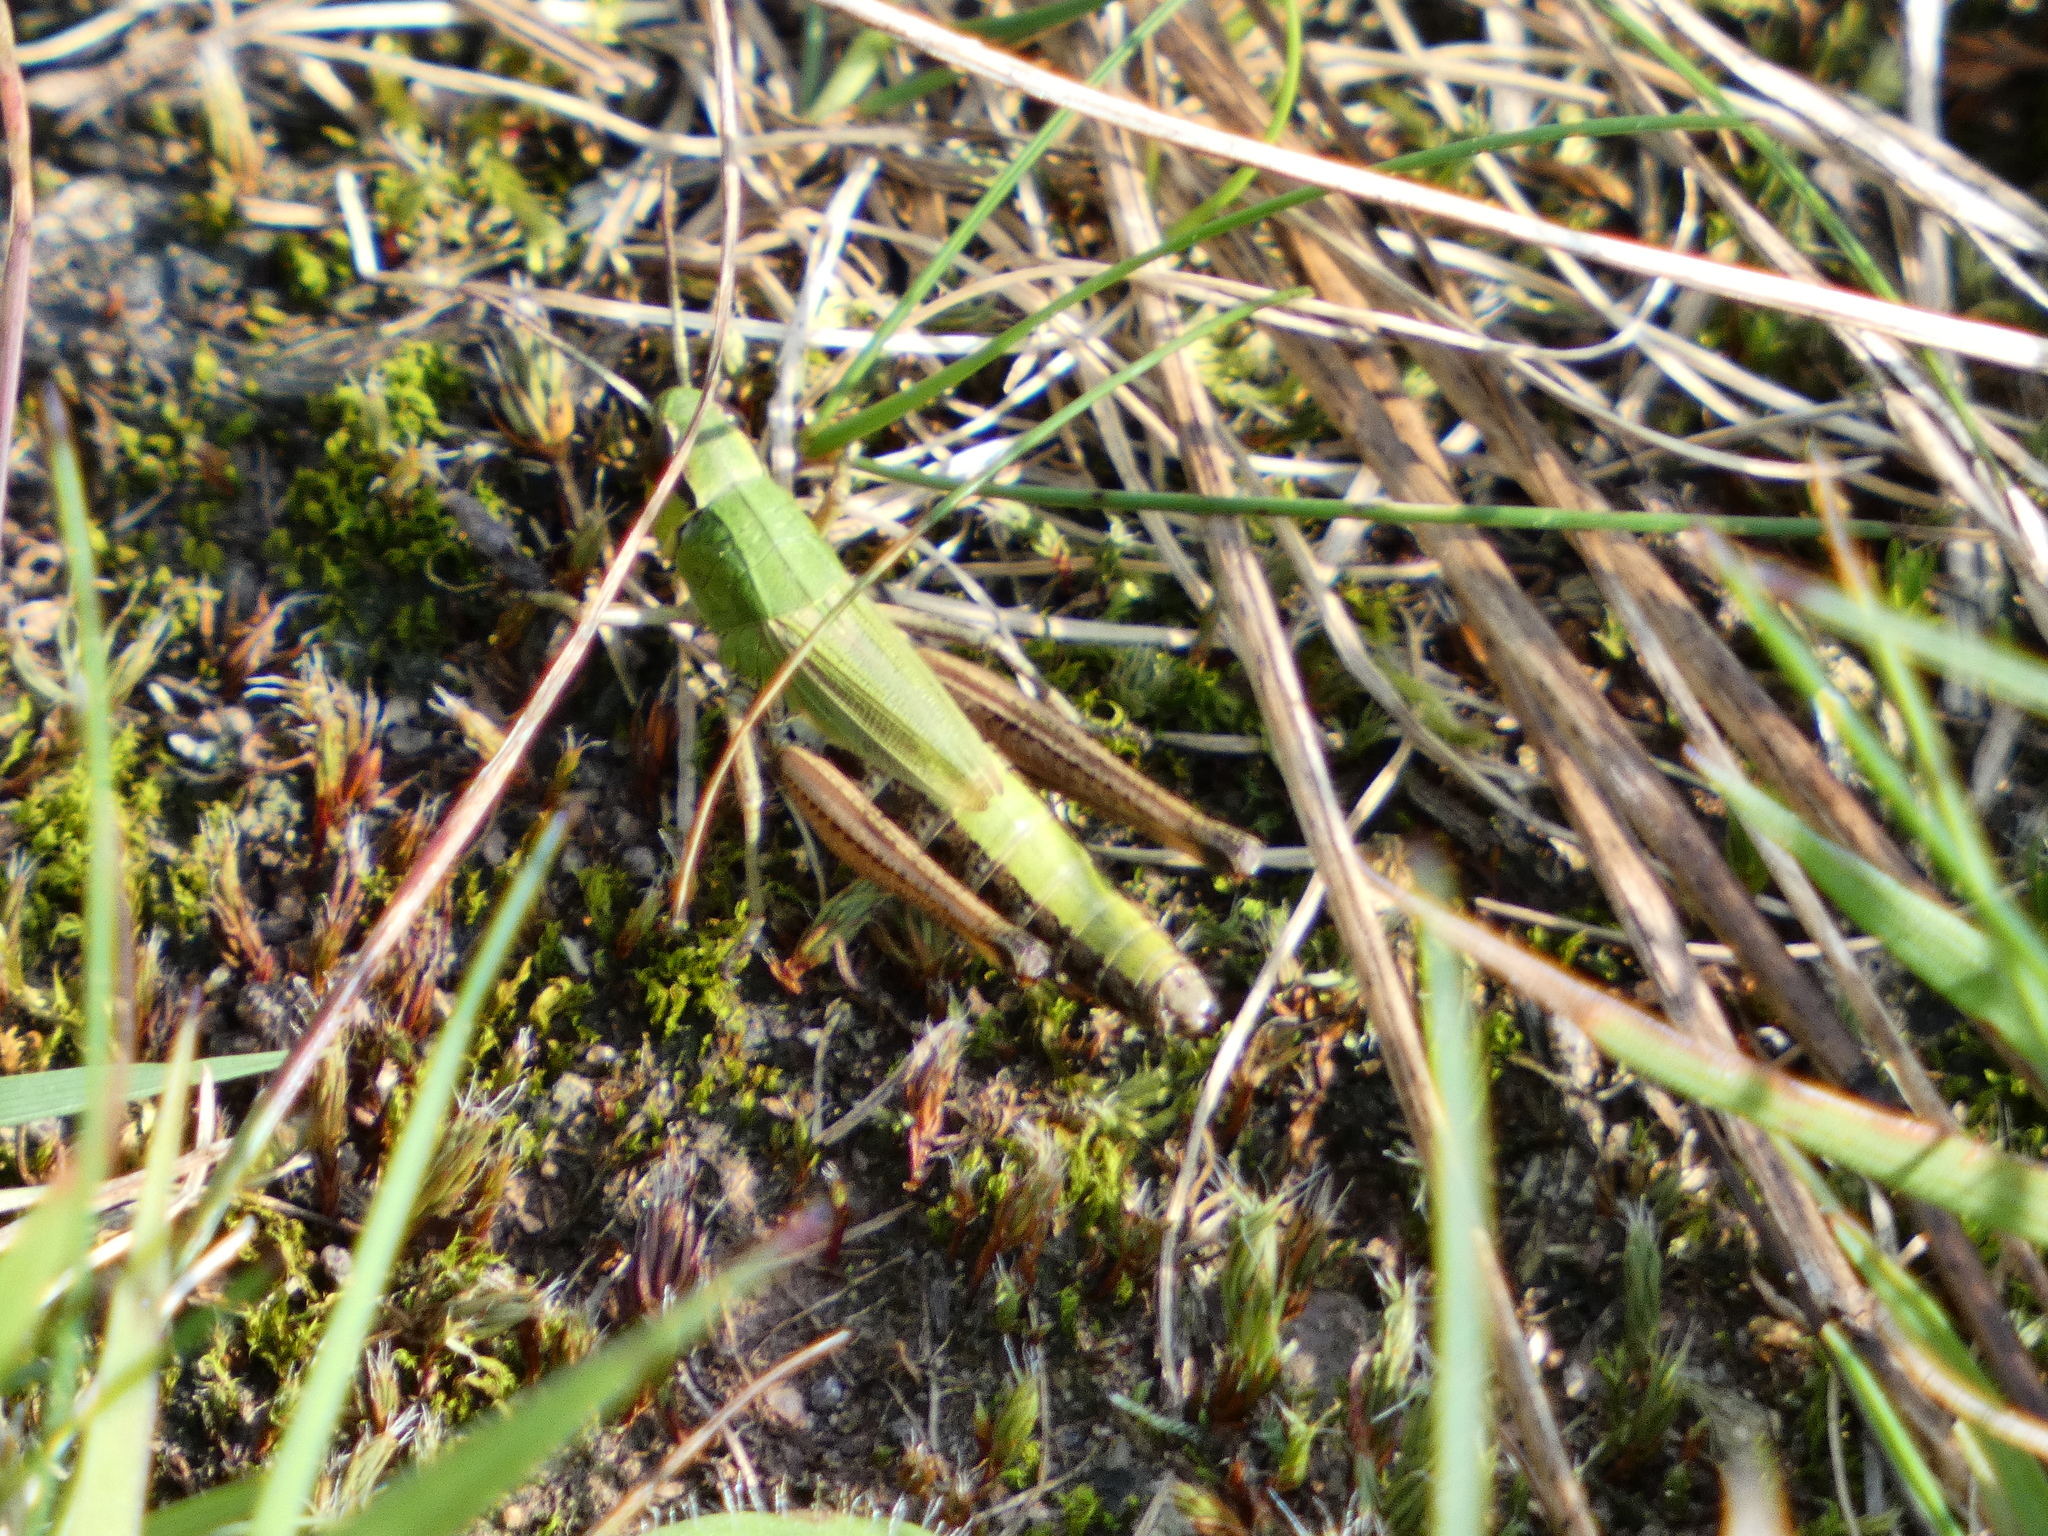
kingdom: Animalia
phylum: Arthropoda
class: Insecta
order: Orthoptera
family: Acrididae
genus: Pseudochorthippus
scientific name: Pseudochorthippus parallelus
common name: Meadow grasshopper
